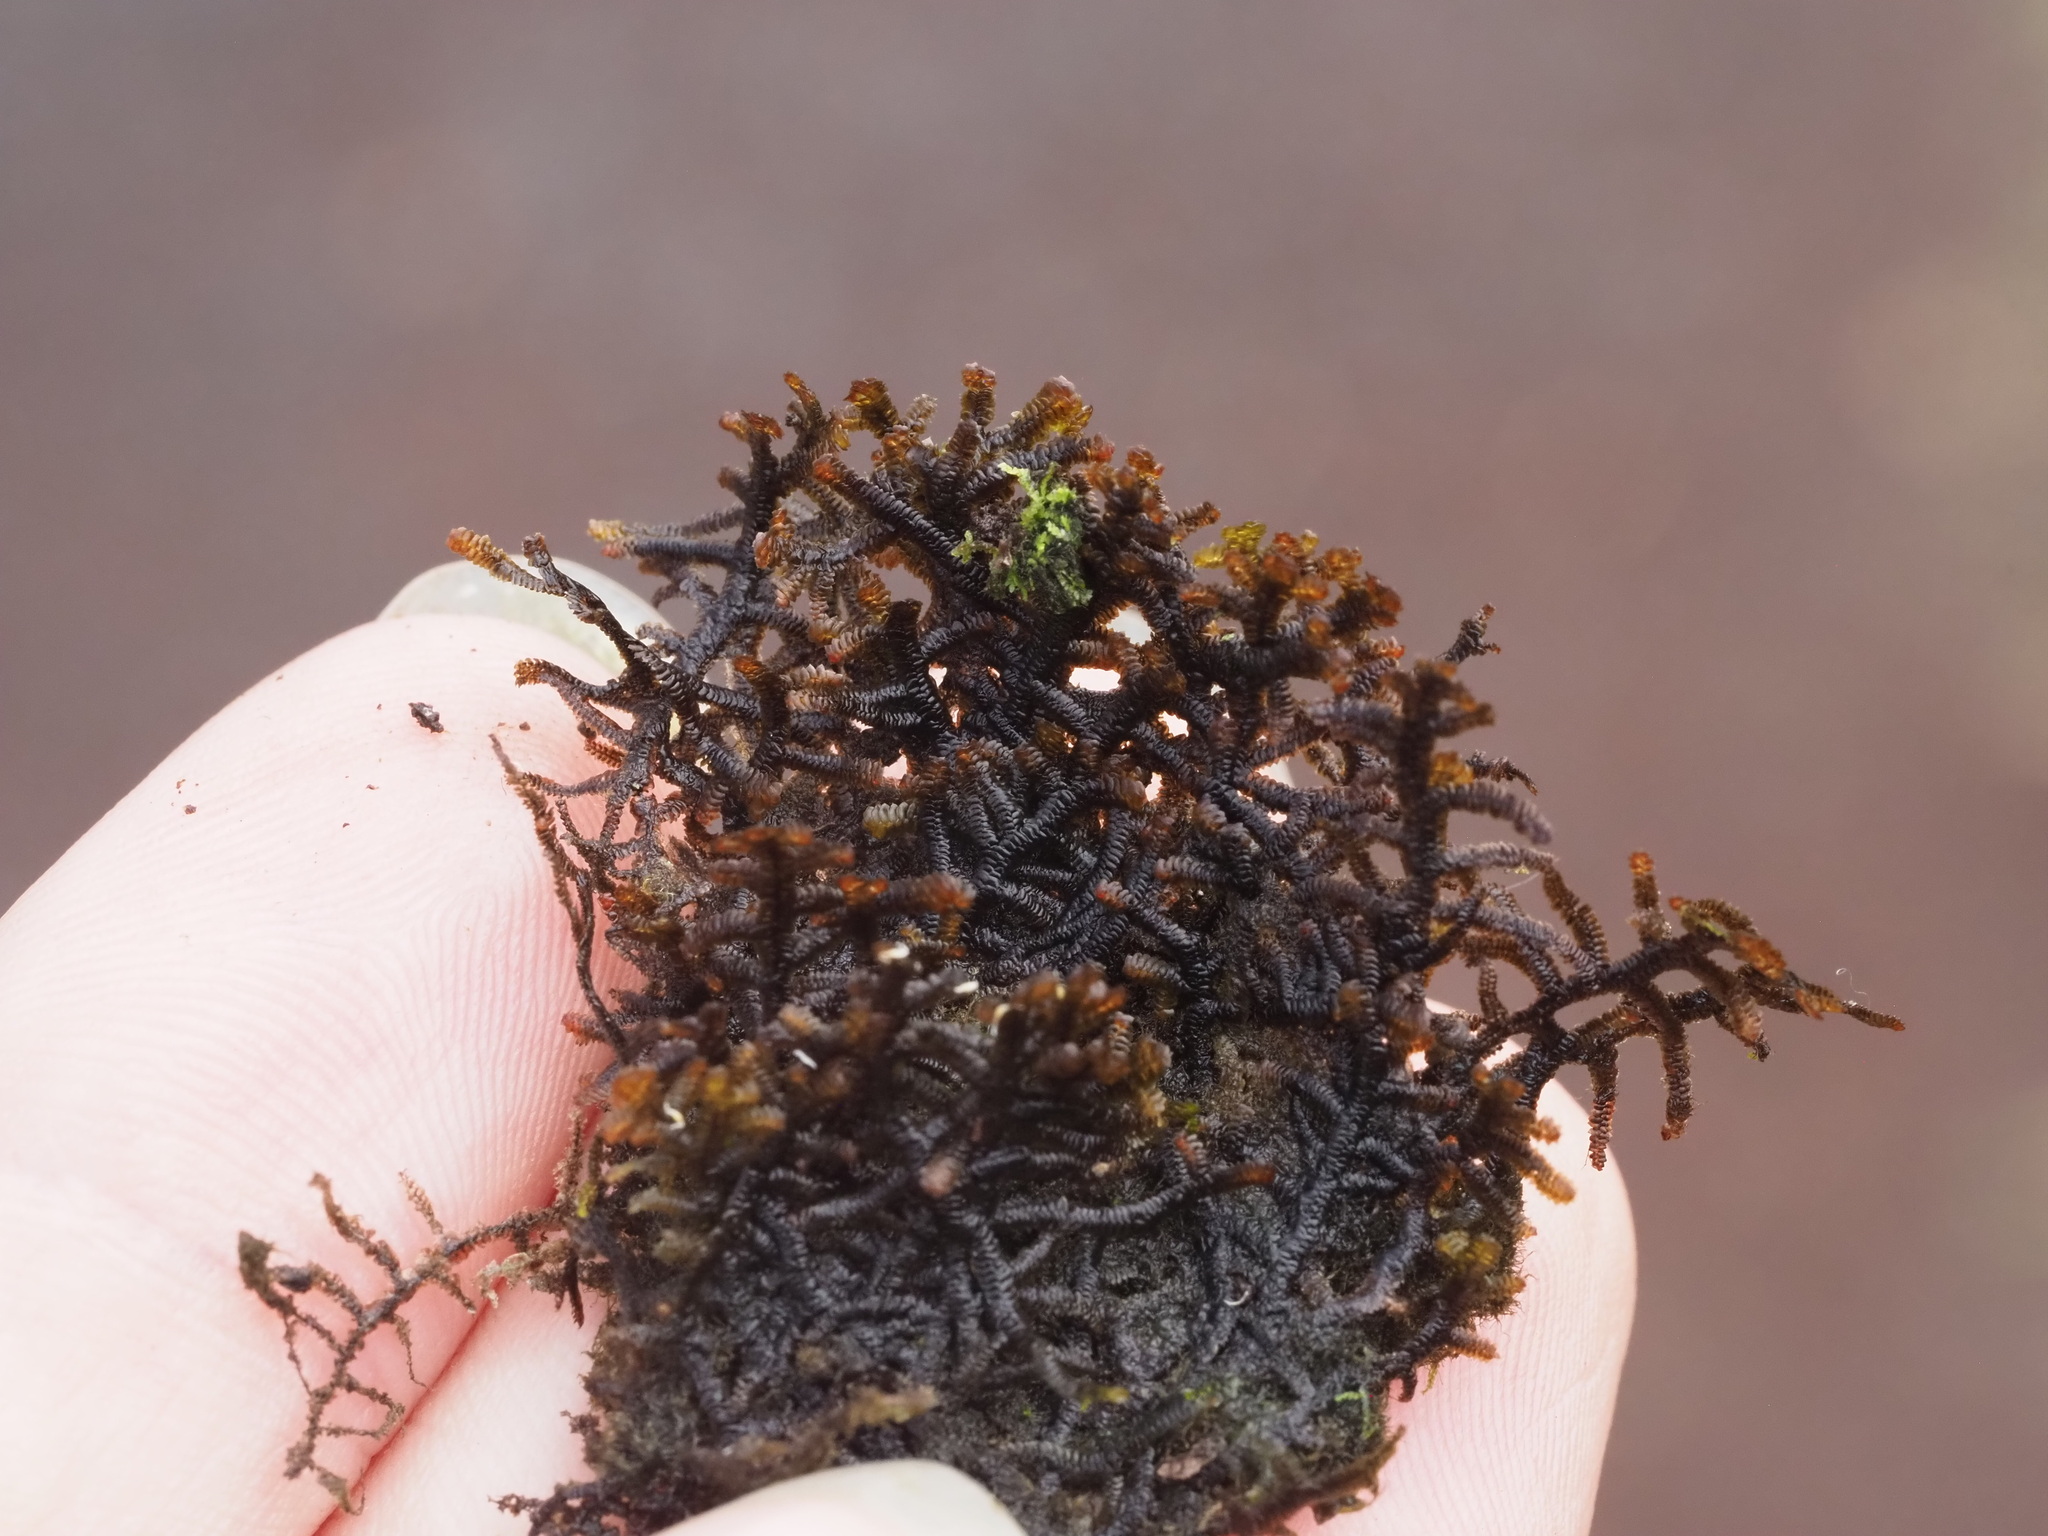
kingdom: Plantae
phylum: Marchantiophyta
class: Jungermanniopsida
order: Porellales
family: Frullaniaceae
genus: Frullania
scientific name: Frullania apiculata
